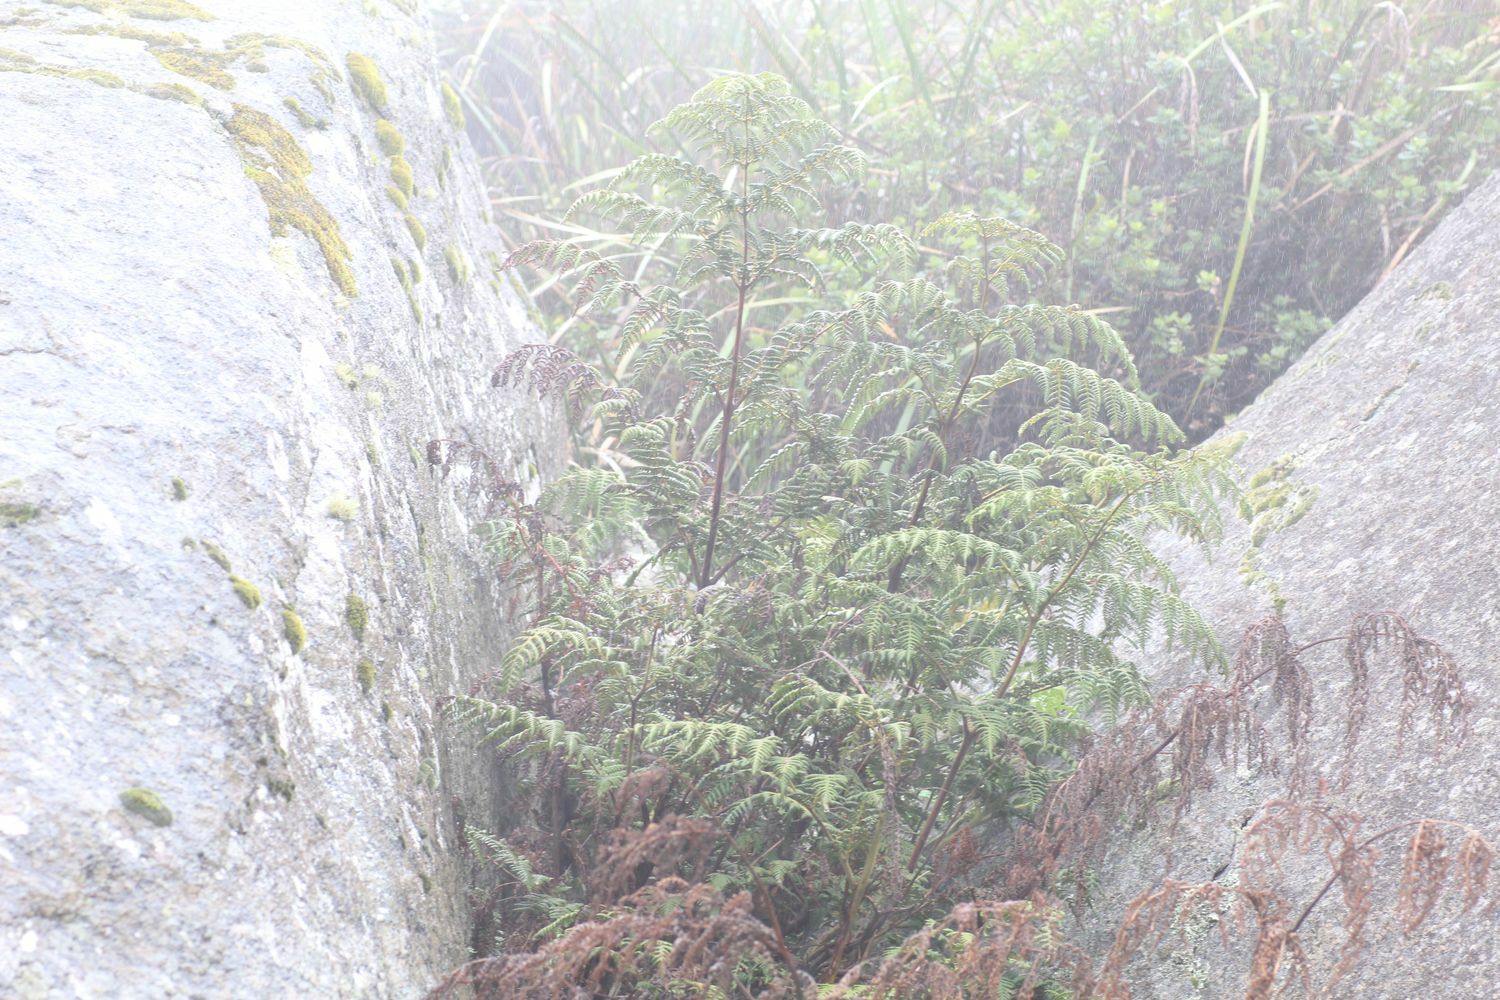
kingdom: Plantae
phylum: Tracheophyta
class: Polypodiopsida
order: Polypodiales
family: Dennstaedtiaceae
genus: Pteridium
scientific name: Pteridium esculentum
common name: Bracken fern
